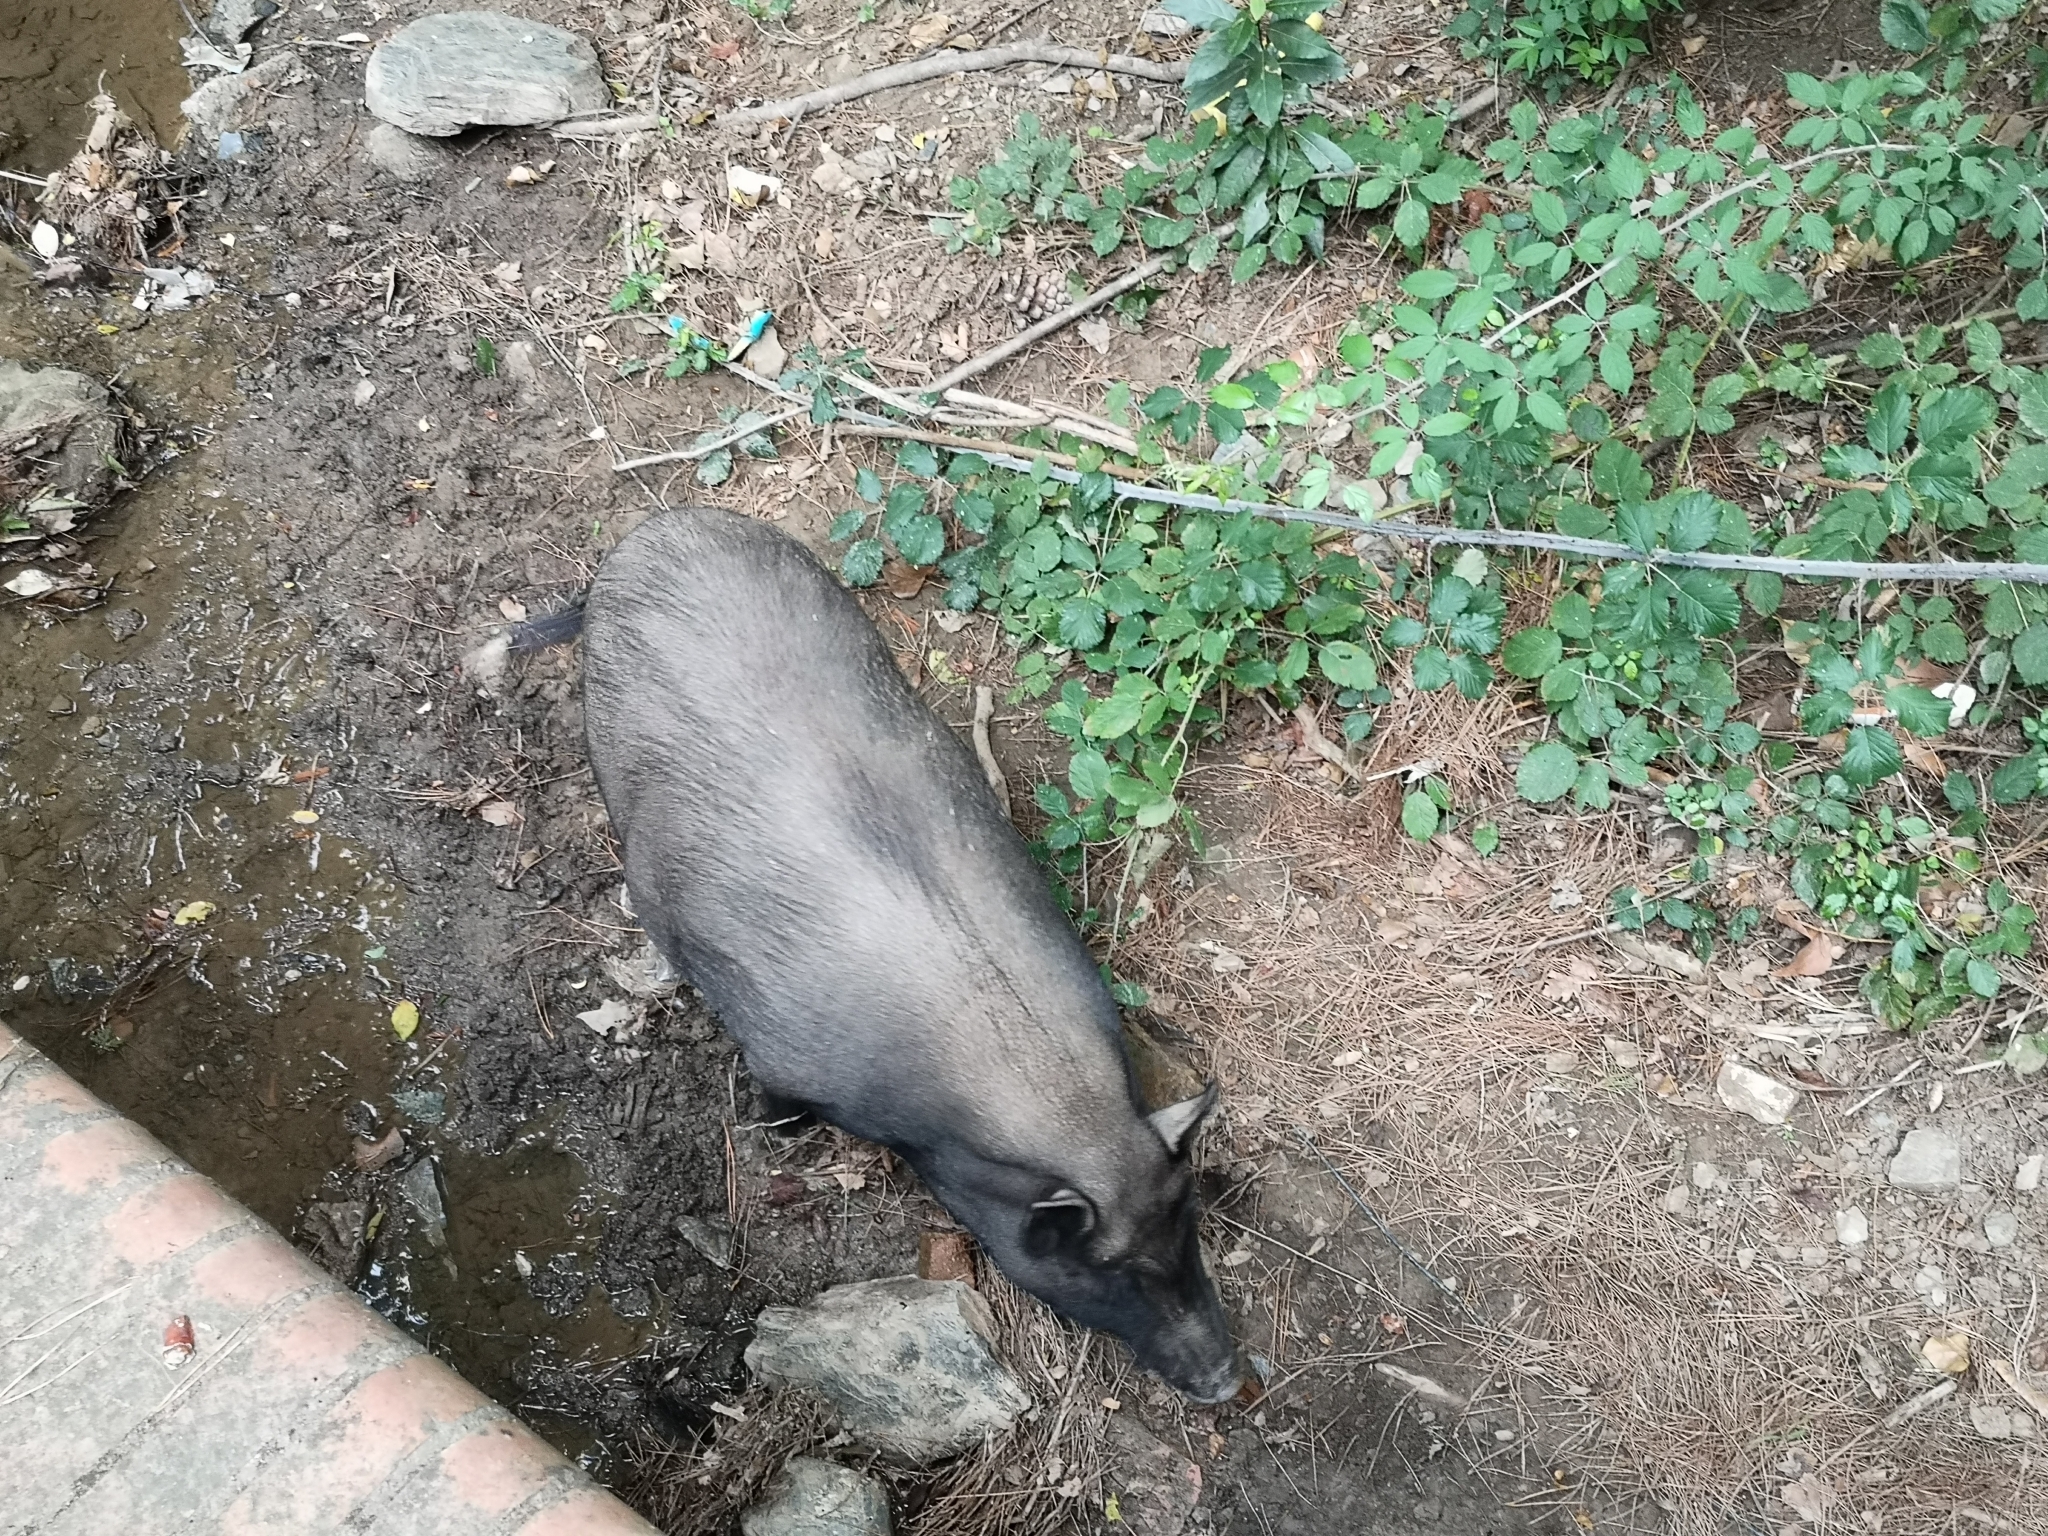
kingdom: Animalia
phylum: Chordata
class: Mammalia
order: Artiodactyla
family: Suidae
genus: Sus
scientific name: Sus scrofa
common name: Wild boar
